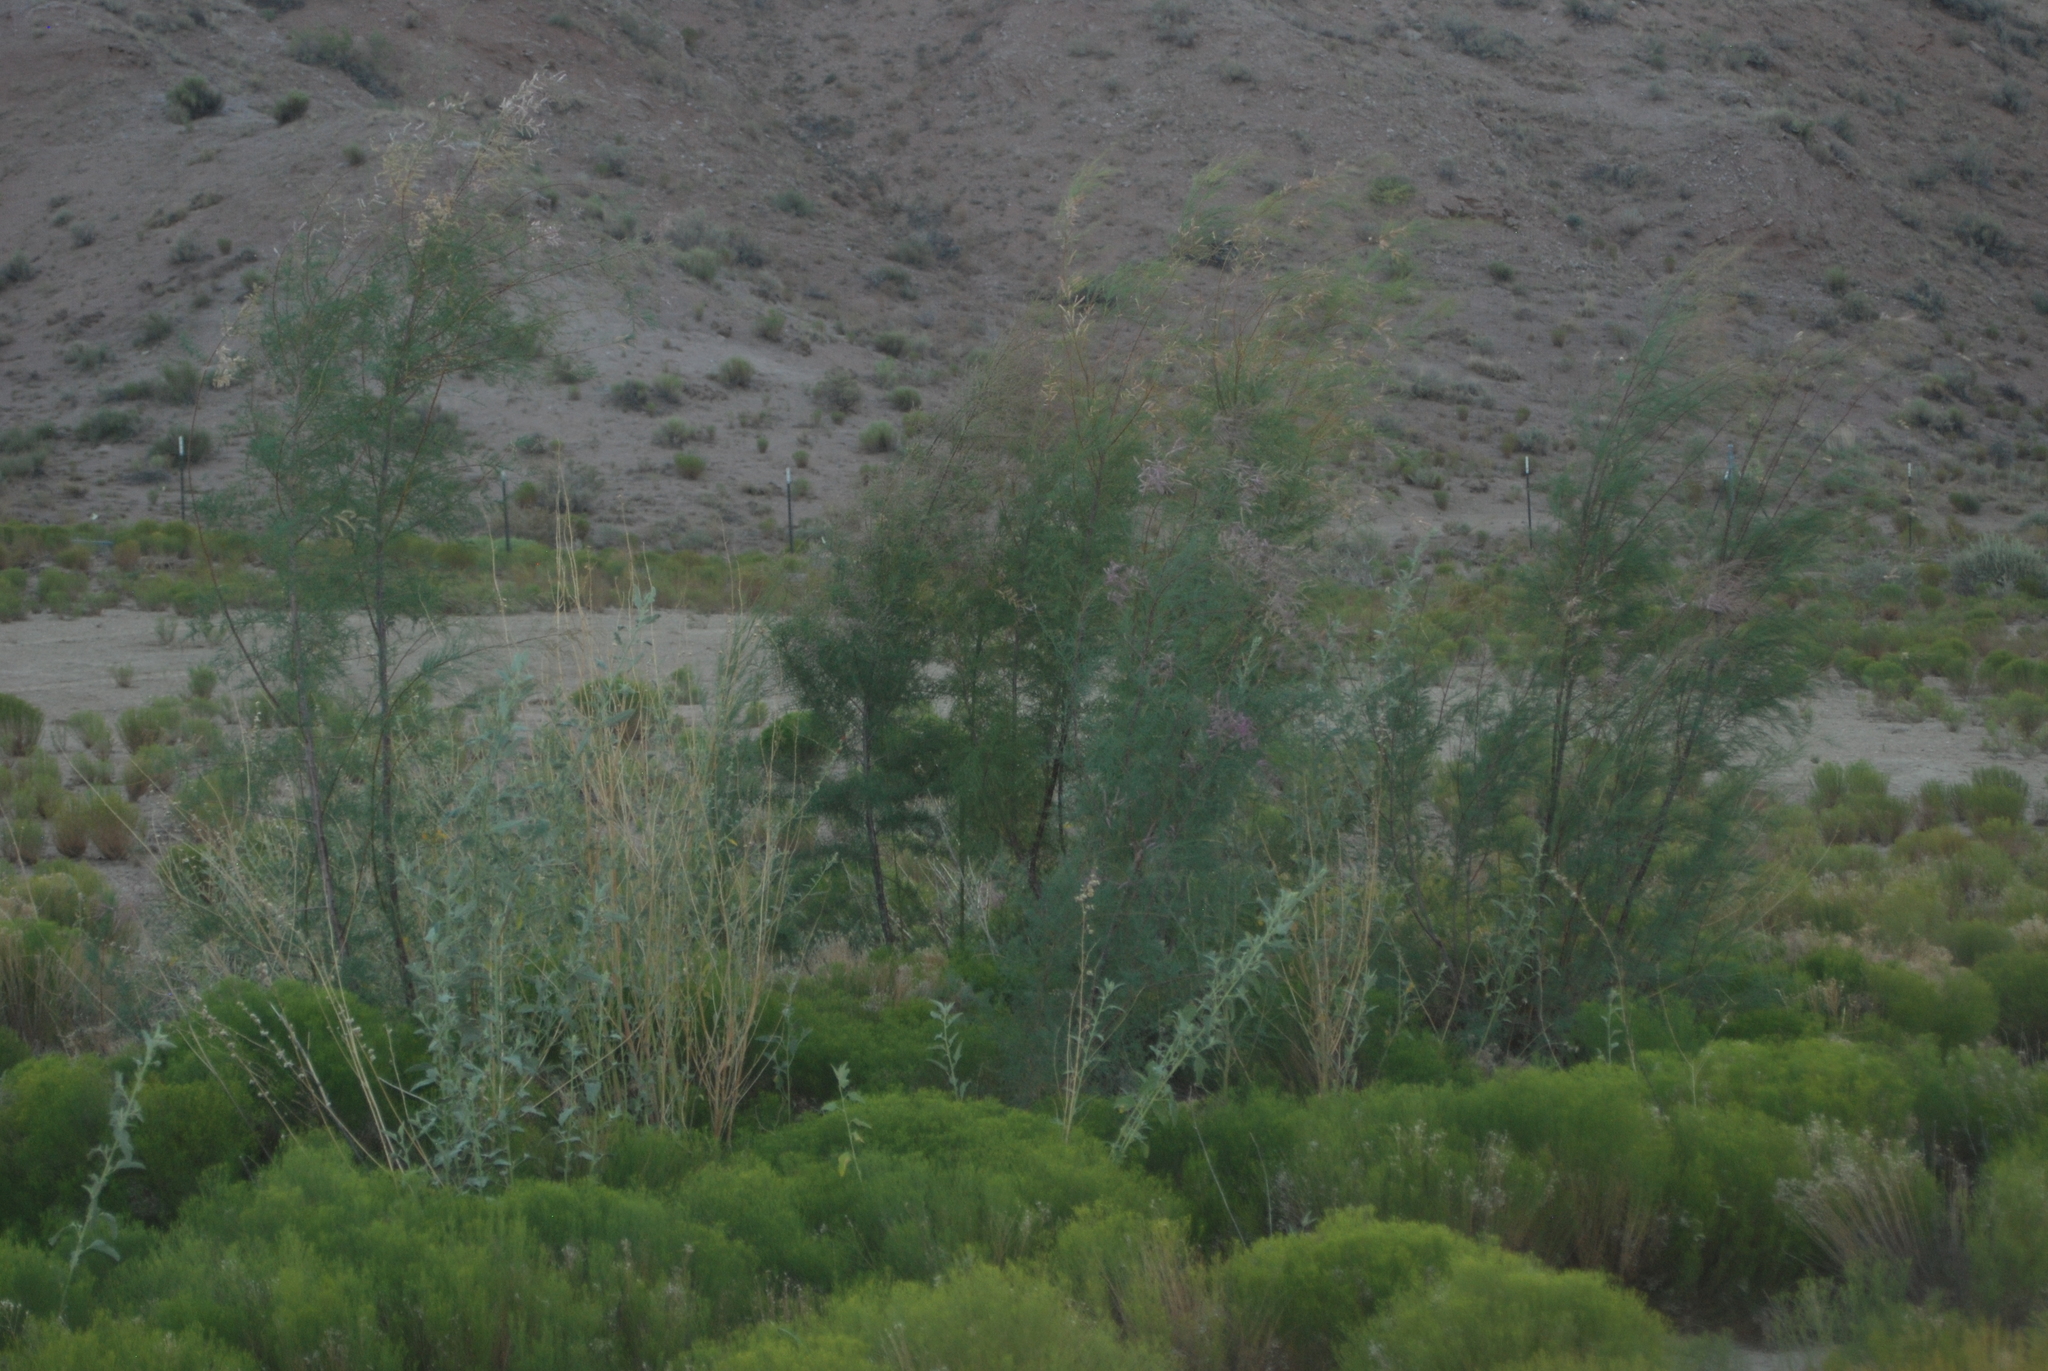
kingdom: Plantae
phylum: Tracheophyta
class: Magnoliopsida
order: Caryophyllales
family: Tamaricaceae
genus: Tamarix
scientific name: Tamarix
